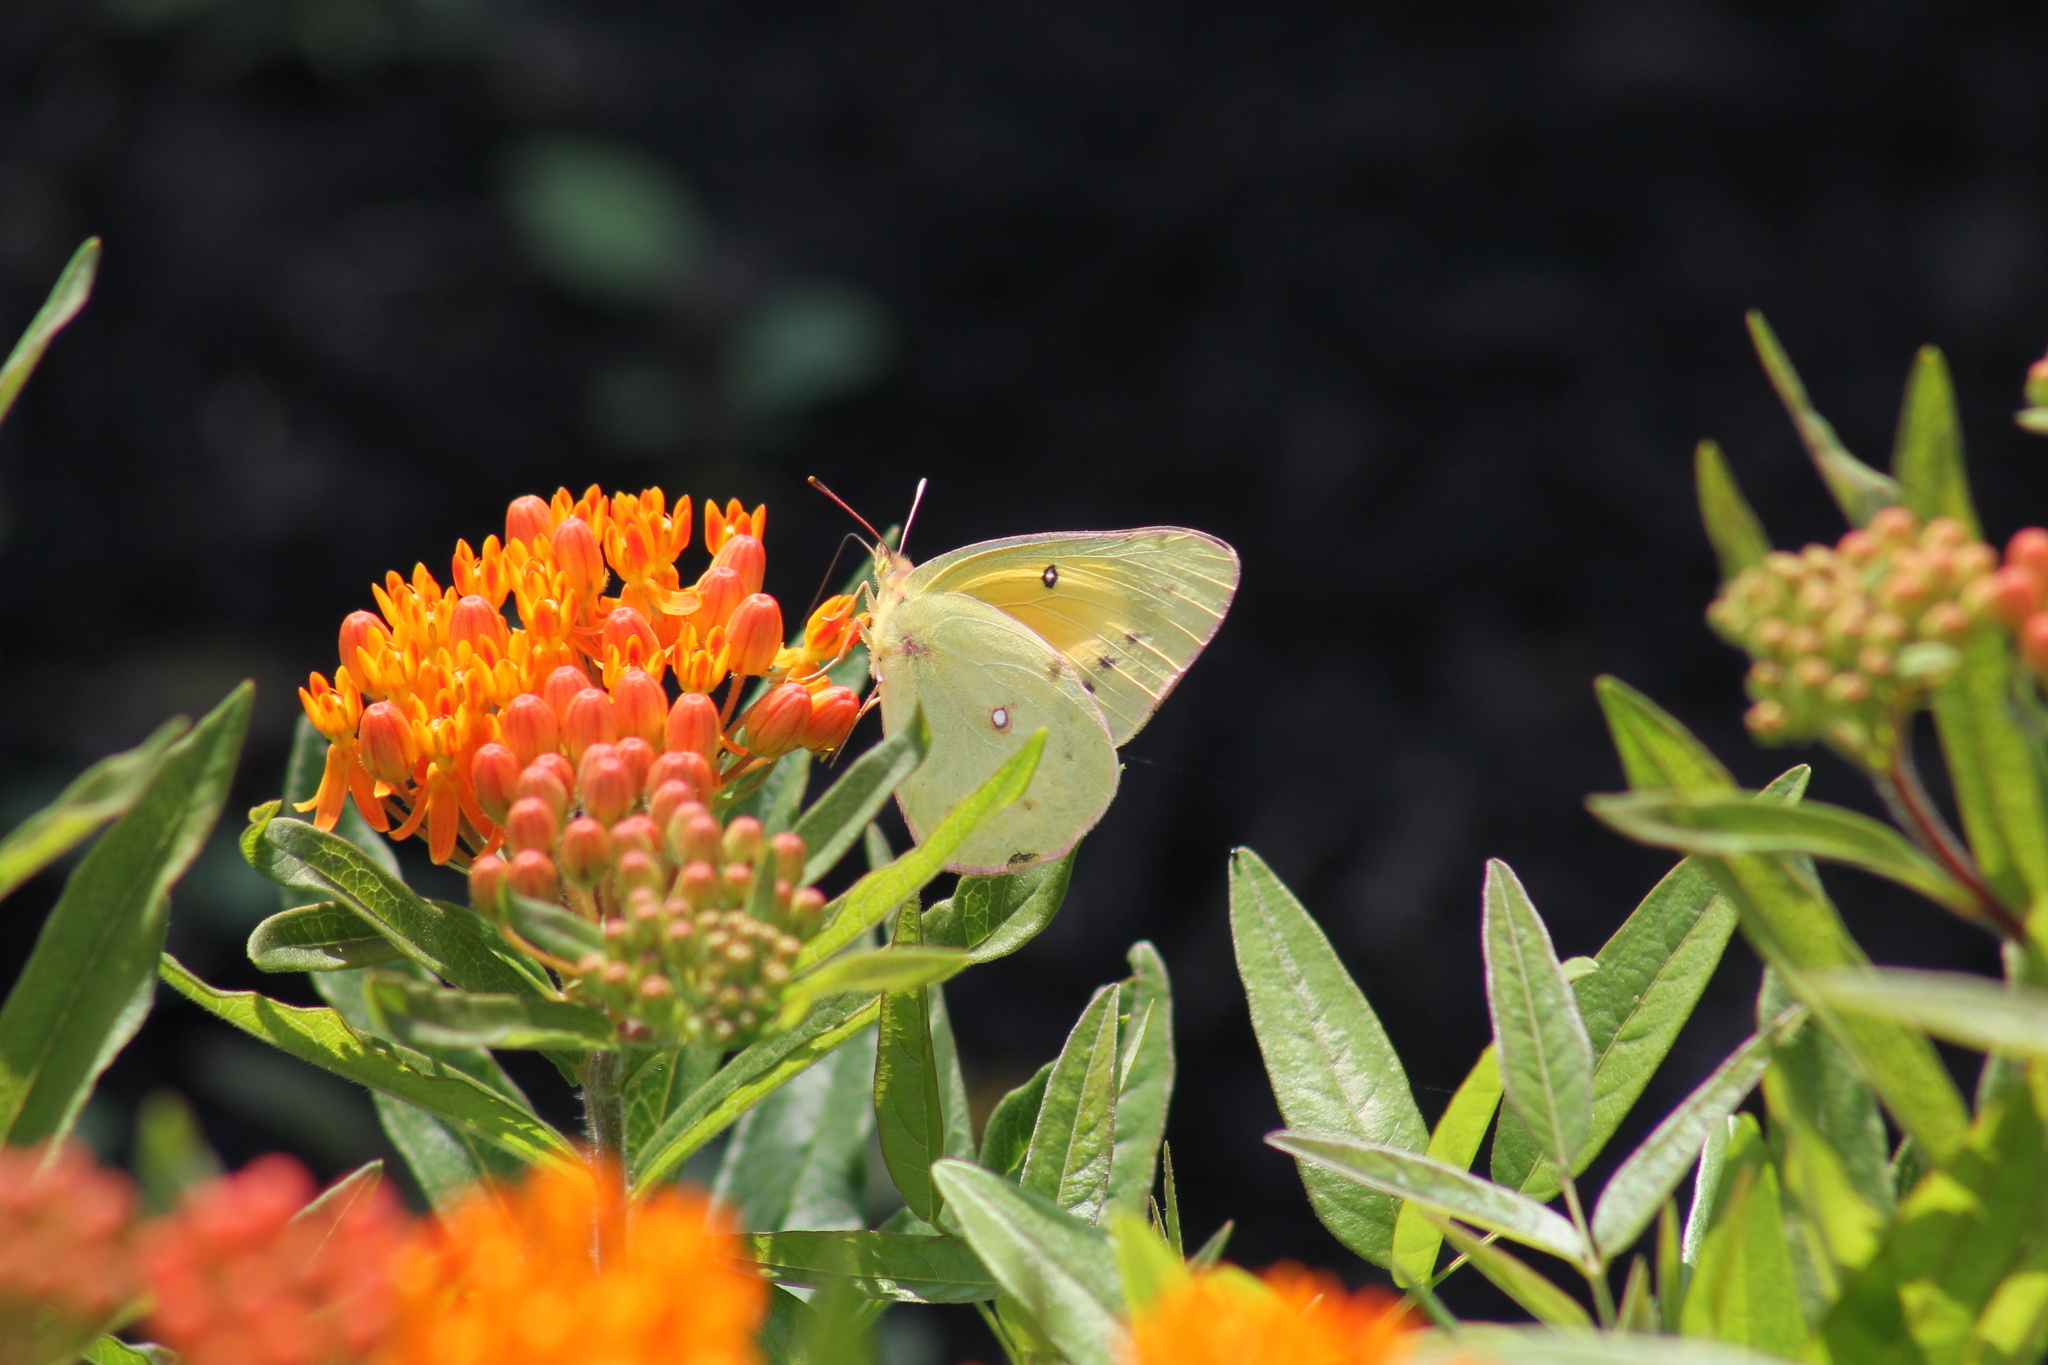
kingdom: Animalia
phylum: Arthropoda
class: Insecta
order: Lepidoptera
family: Pieridae
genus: Colias
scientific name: Colias eurytheme
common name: Alfalfa butterfly
